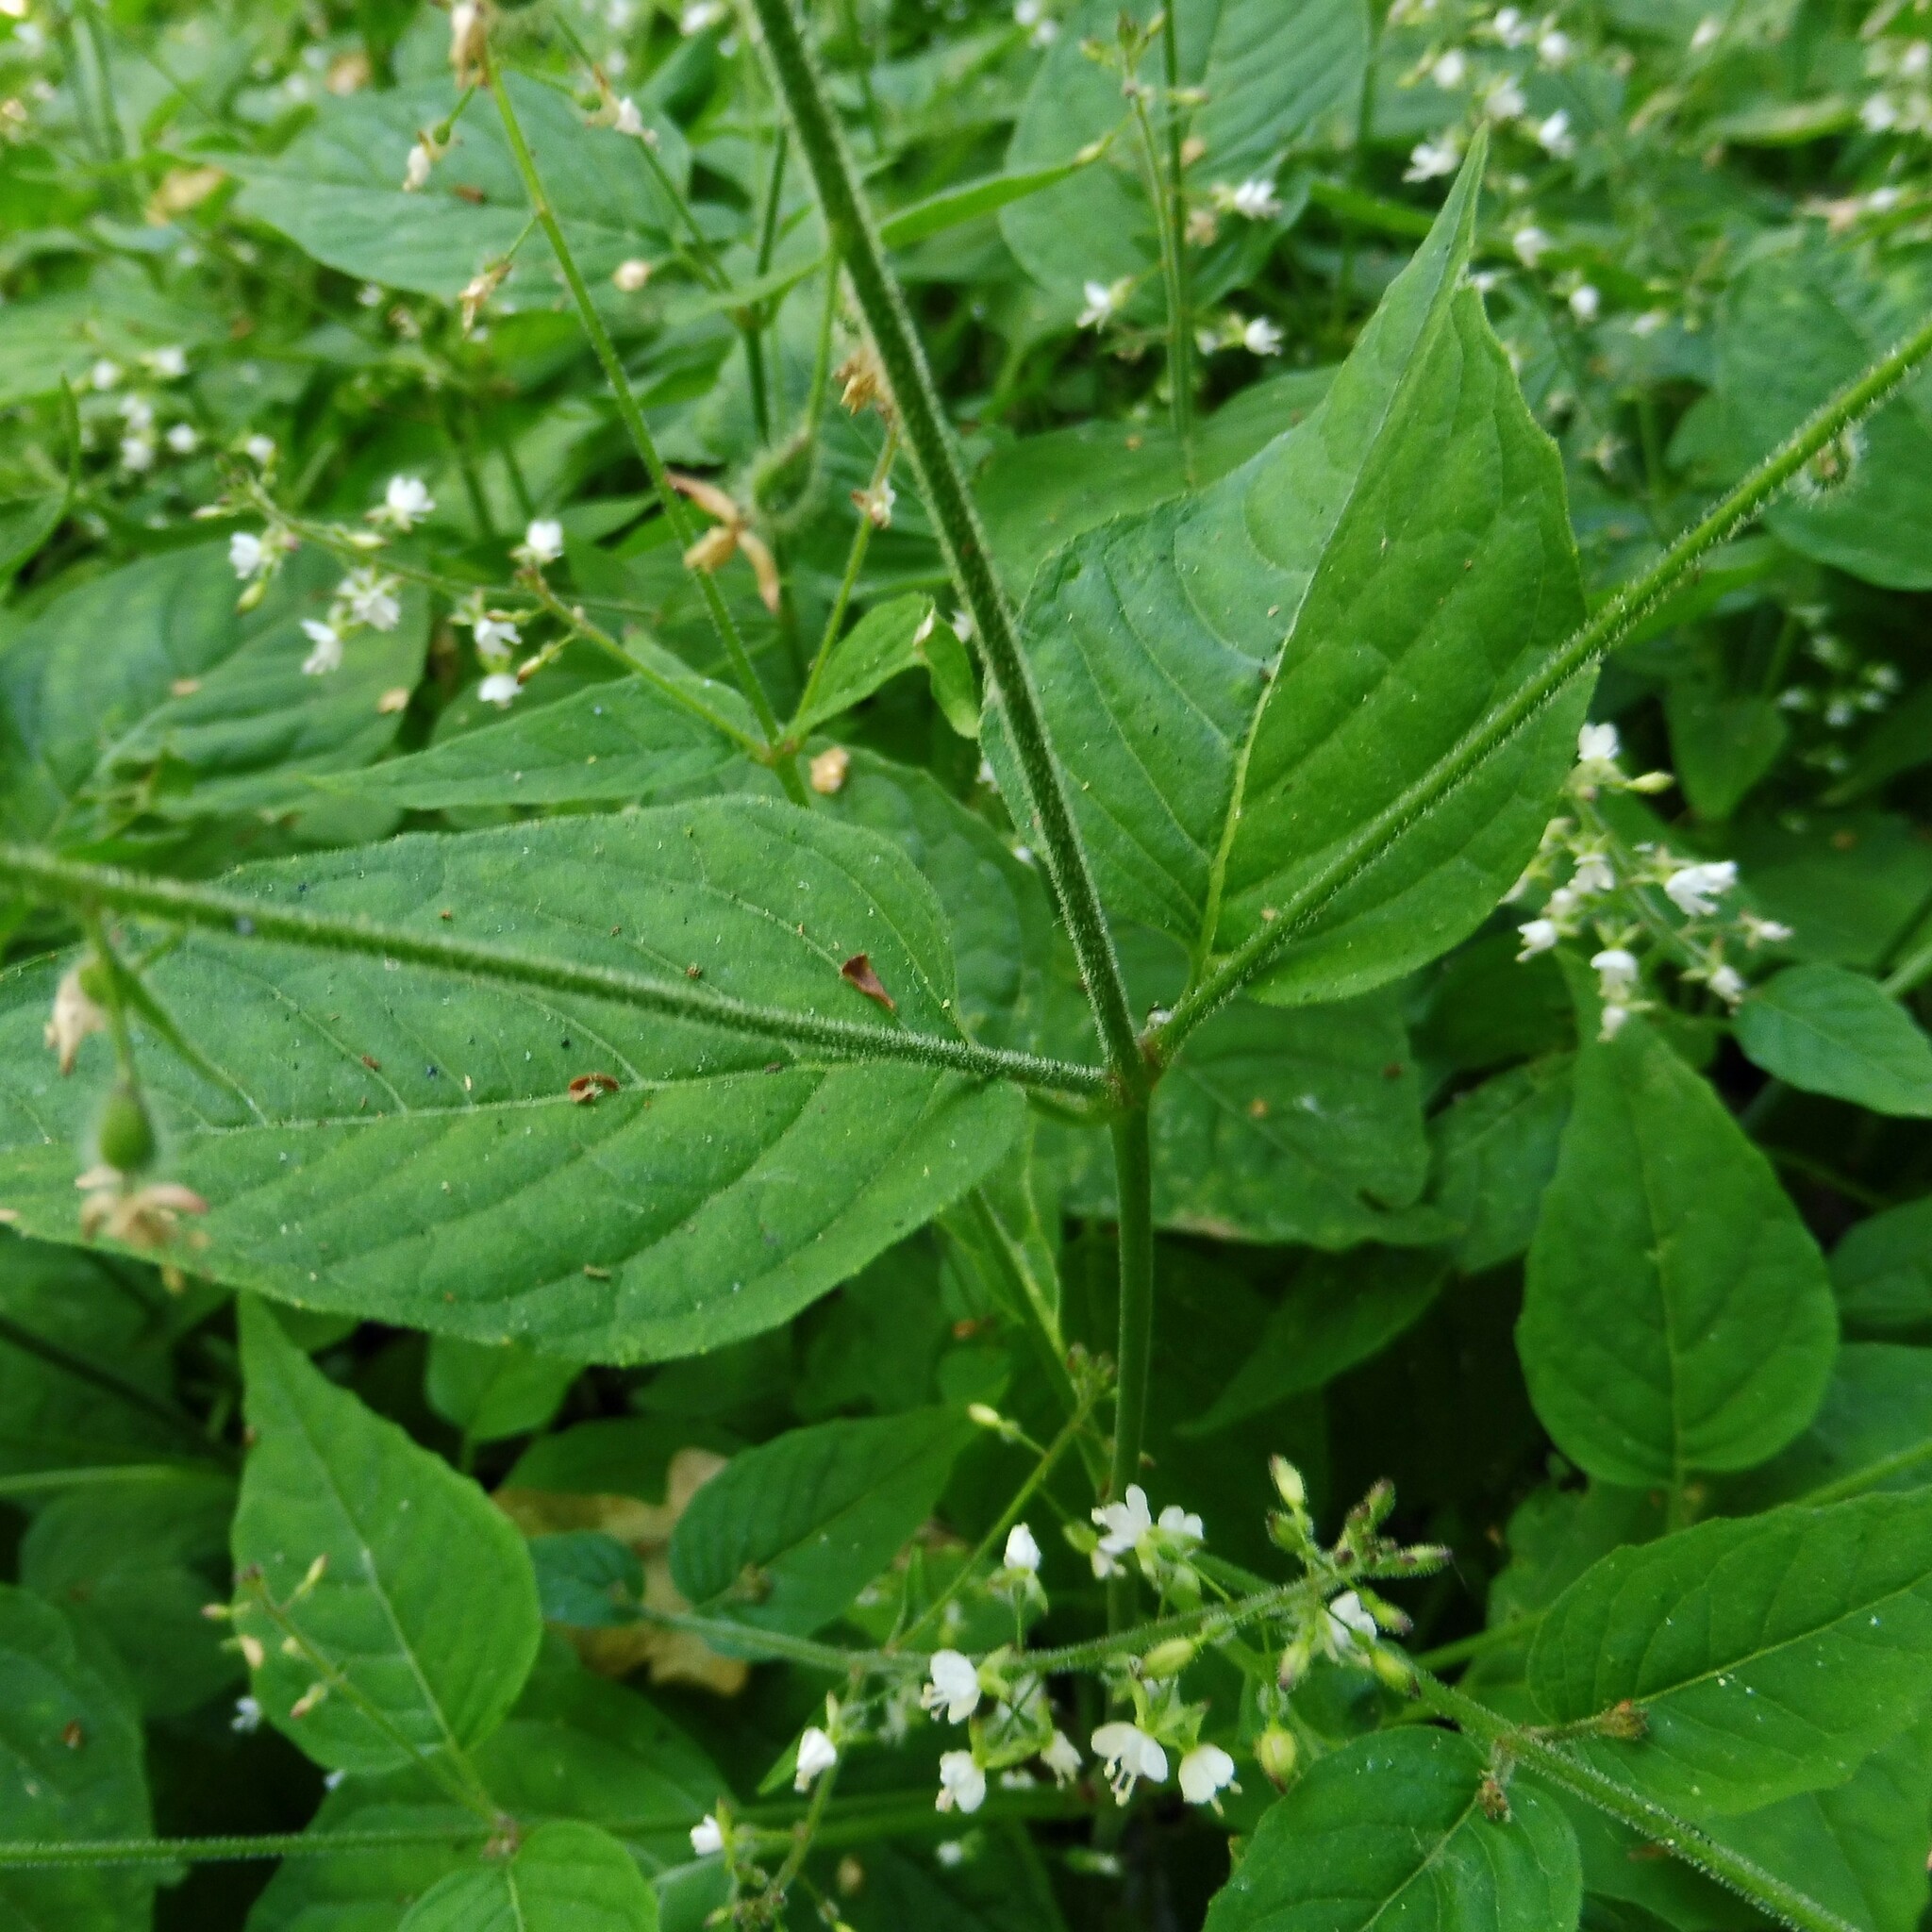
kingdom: Plantae
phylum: Tracheophyta
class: Magnoliopsida
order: Myrtales
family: Onagraceae
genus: Circaea
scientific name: Circaea lutetiana
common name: Enchanter's-nightshade
